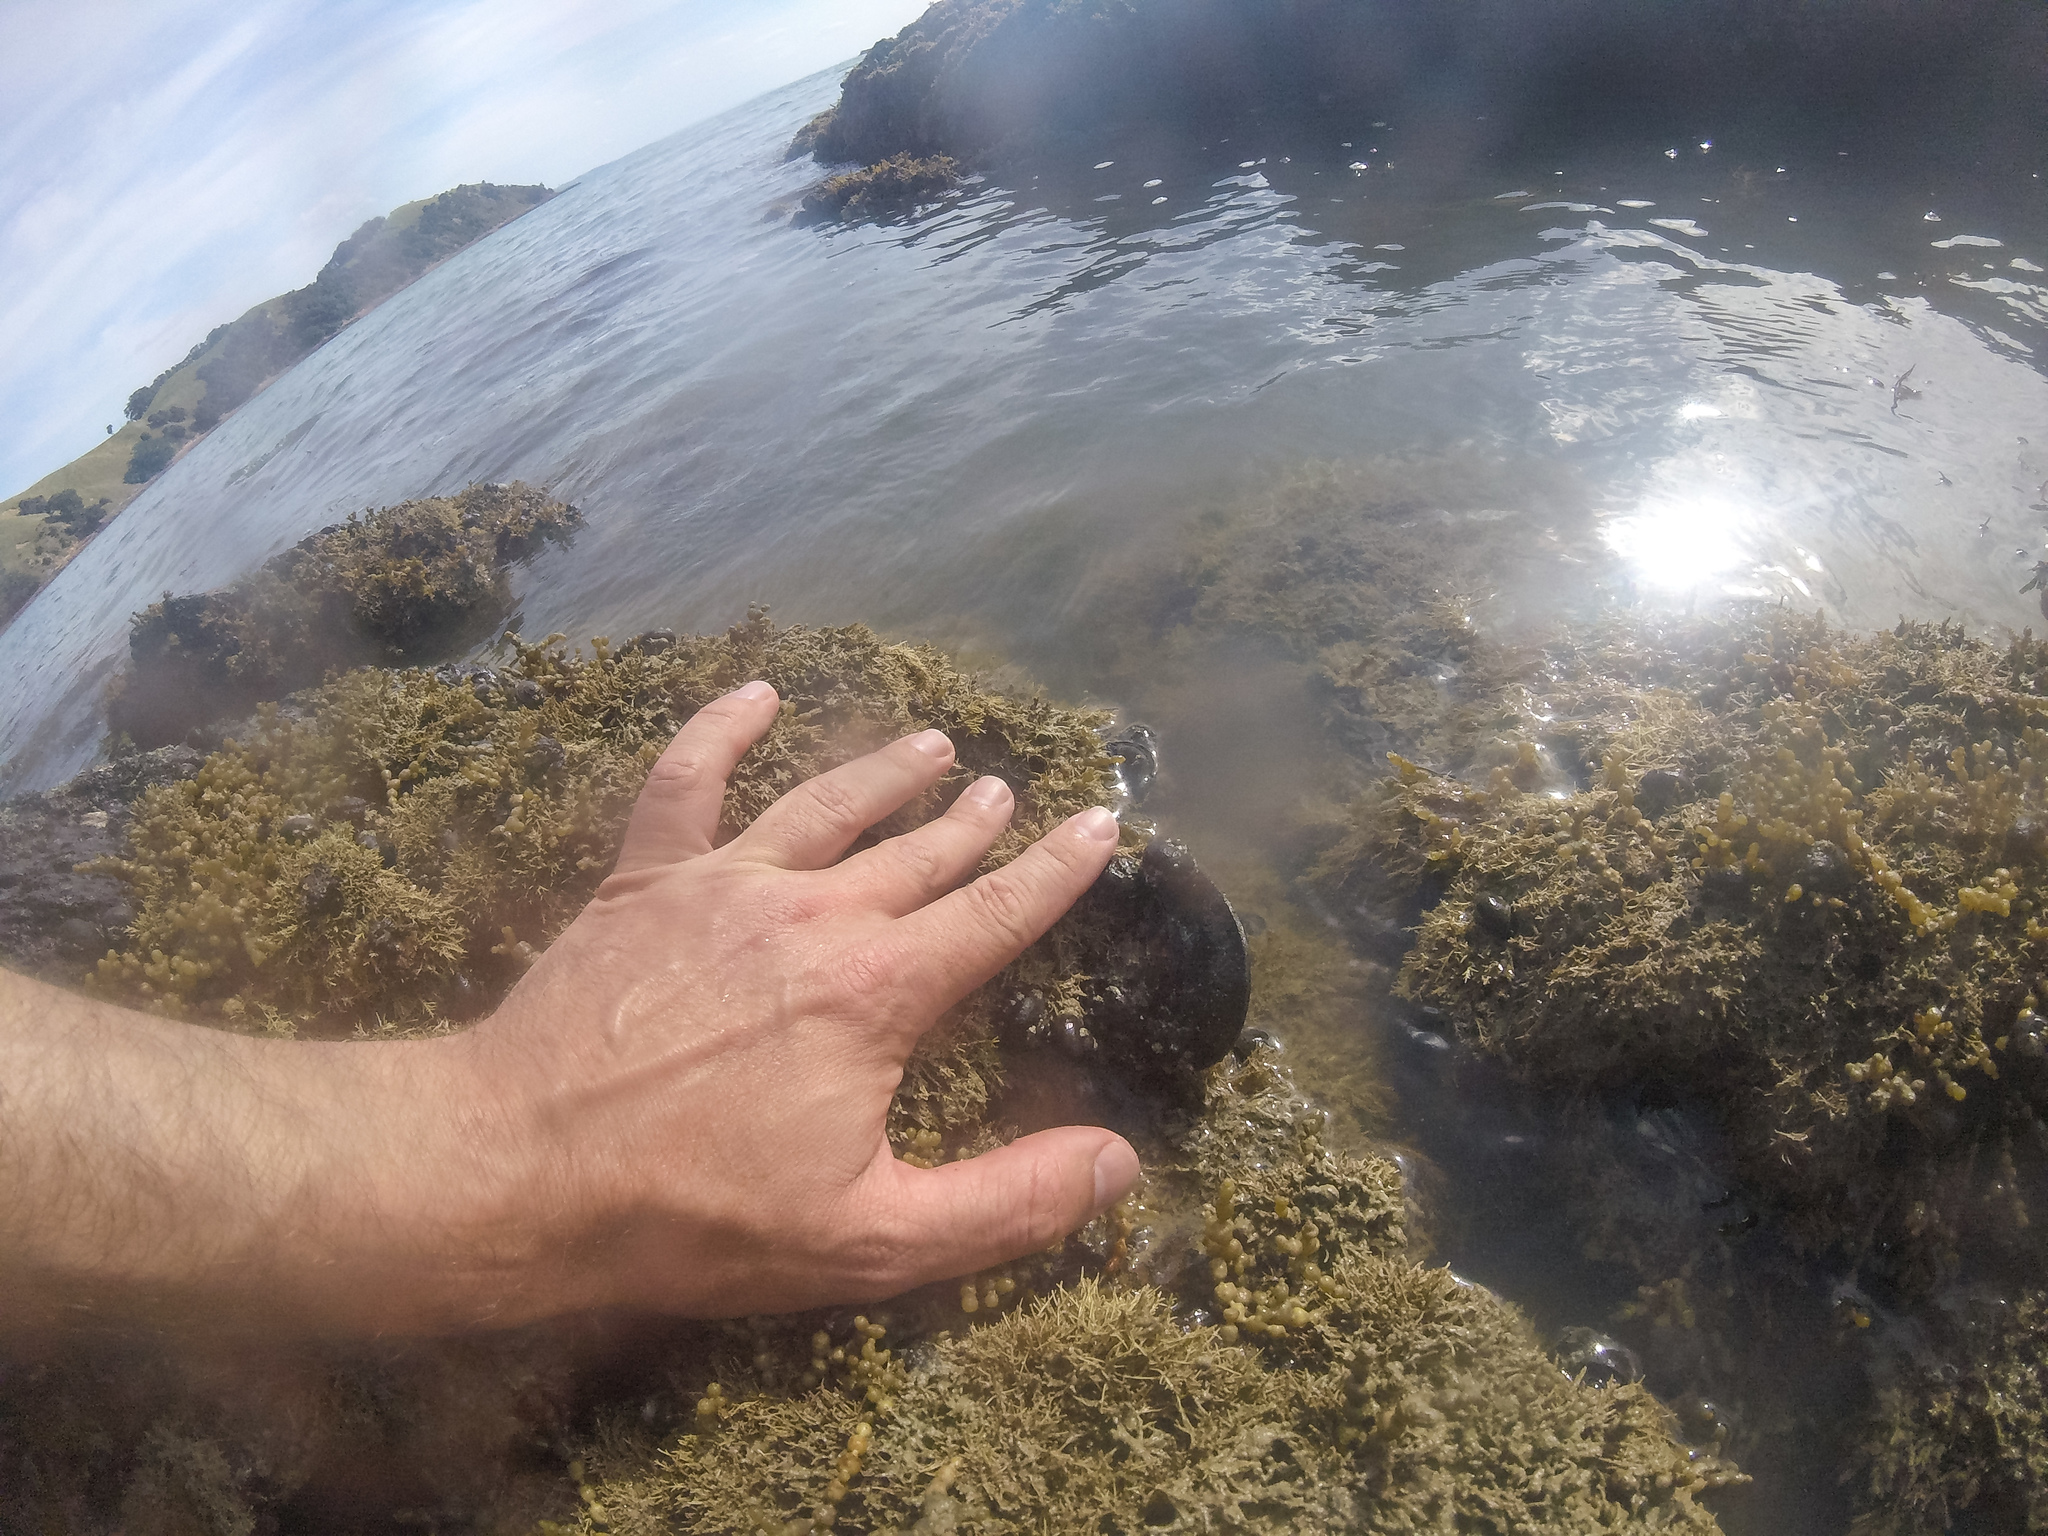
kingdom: Animalia
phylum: Mollusca
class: Bivalvia
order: Mytilida
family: Mytilidae
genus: Perna
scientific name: Perna canaliculus
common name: New zealand greenshelltm
